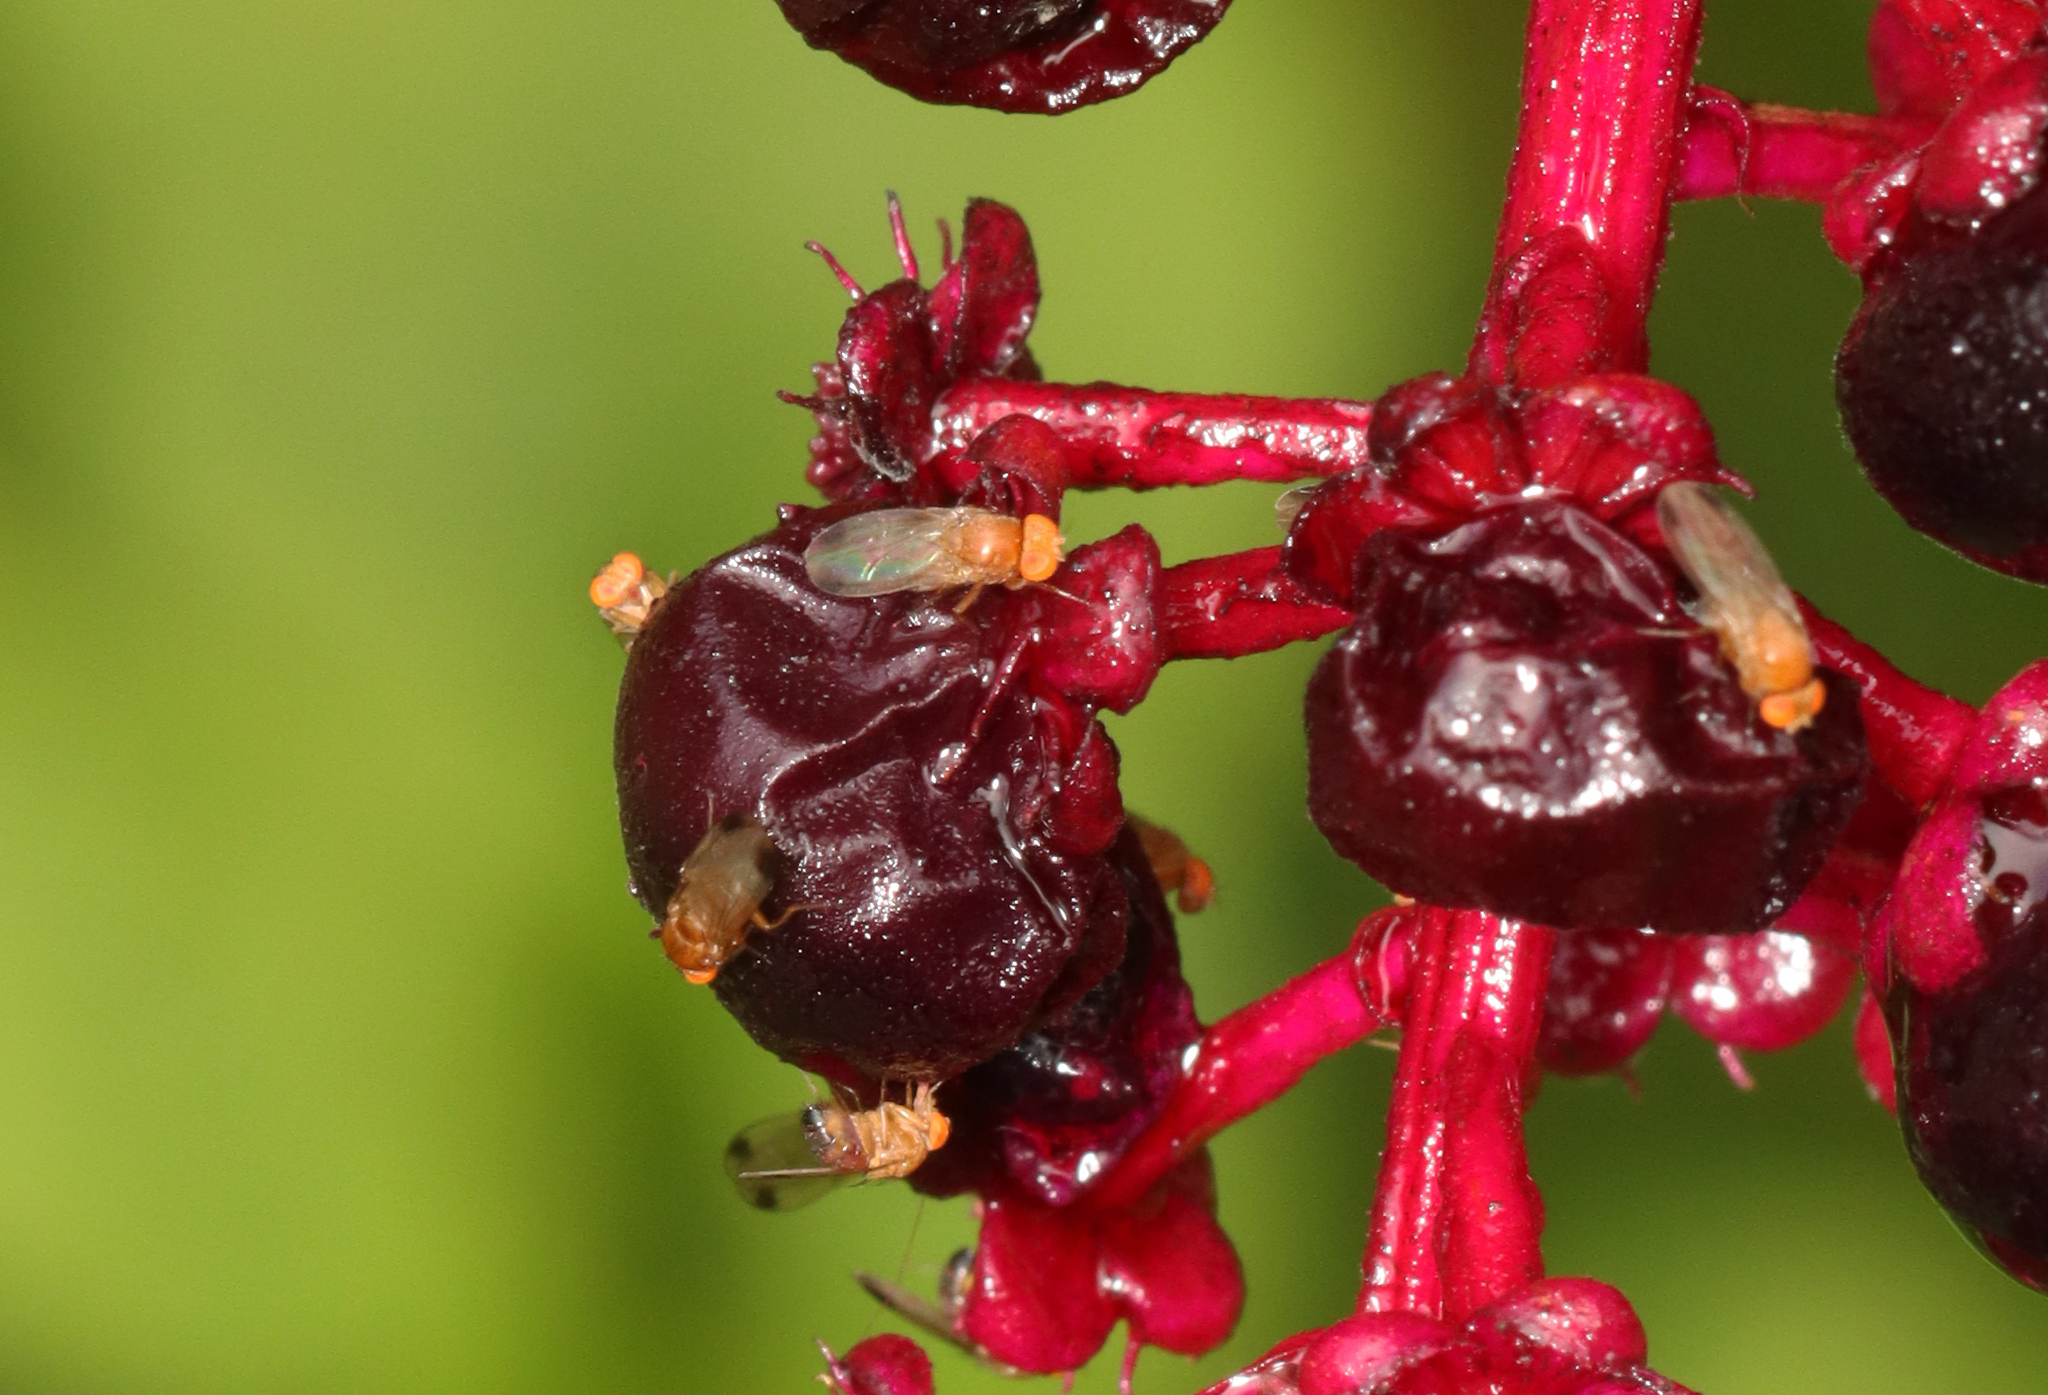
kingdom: Animalia
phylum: Arthropoda
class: Insecta
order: Diptera
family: Drosophilidae
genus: Drosophila
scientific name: Drosophila suzukii
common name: Spotted-wing drosophila
